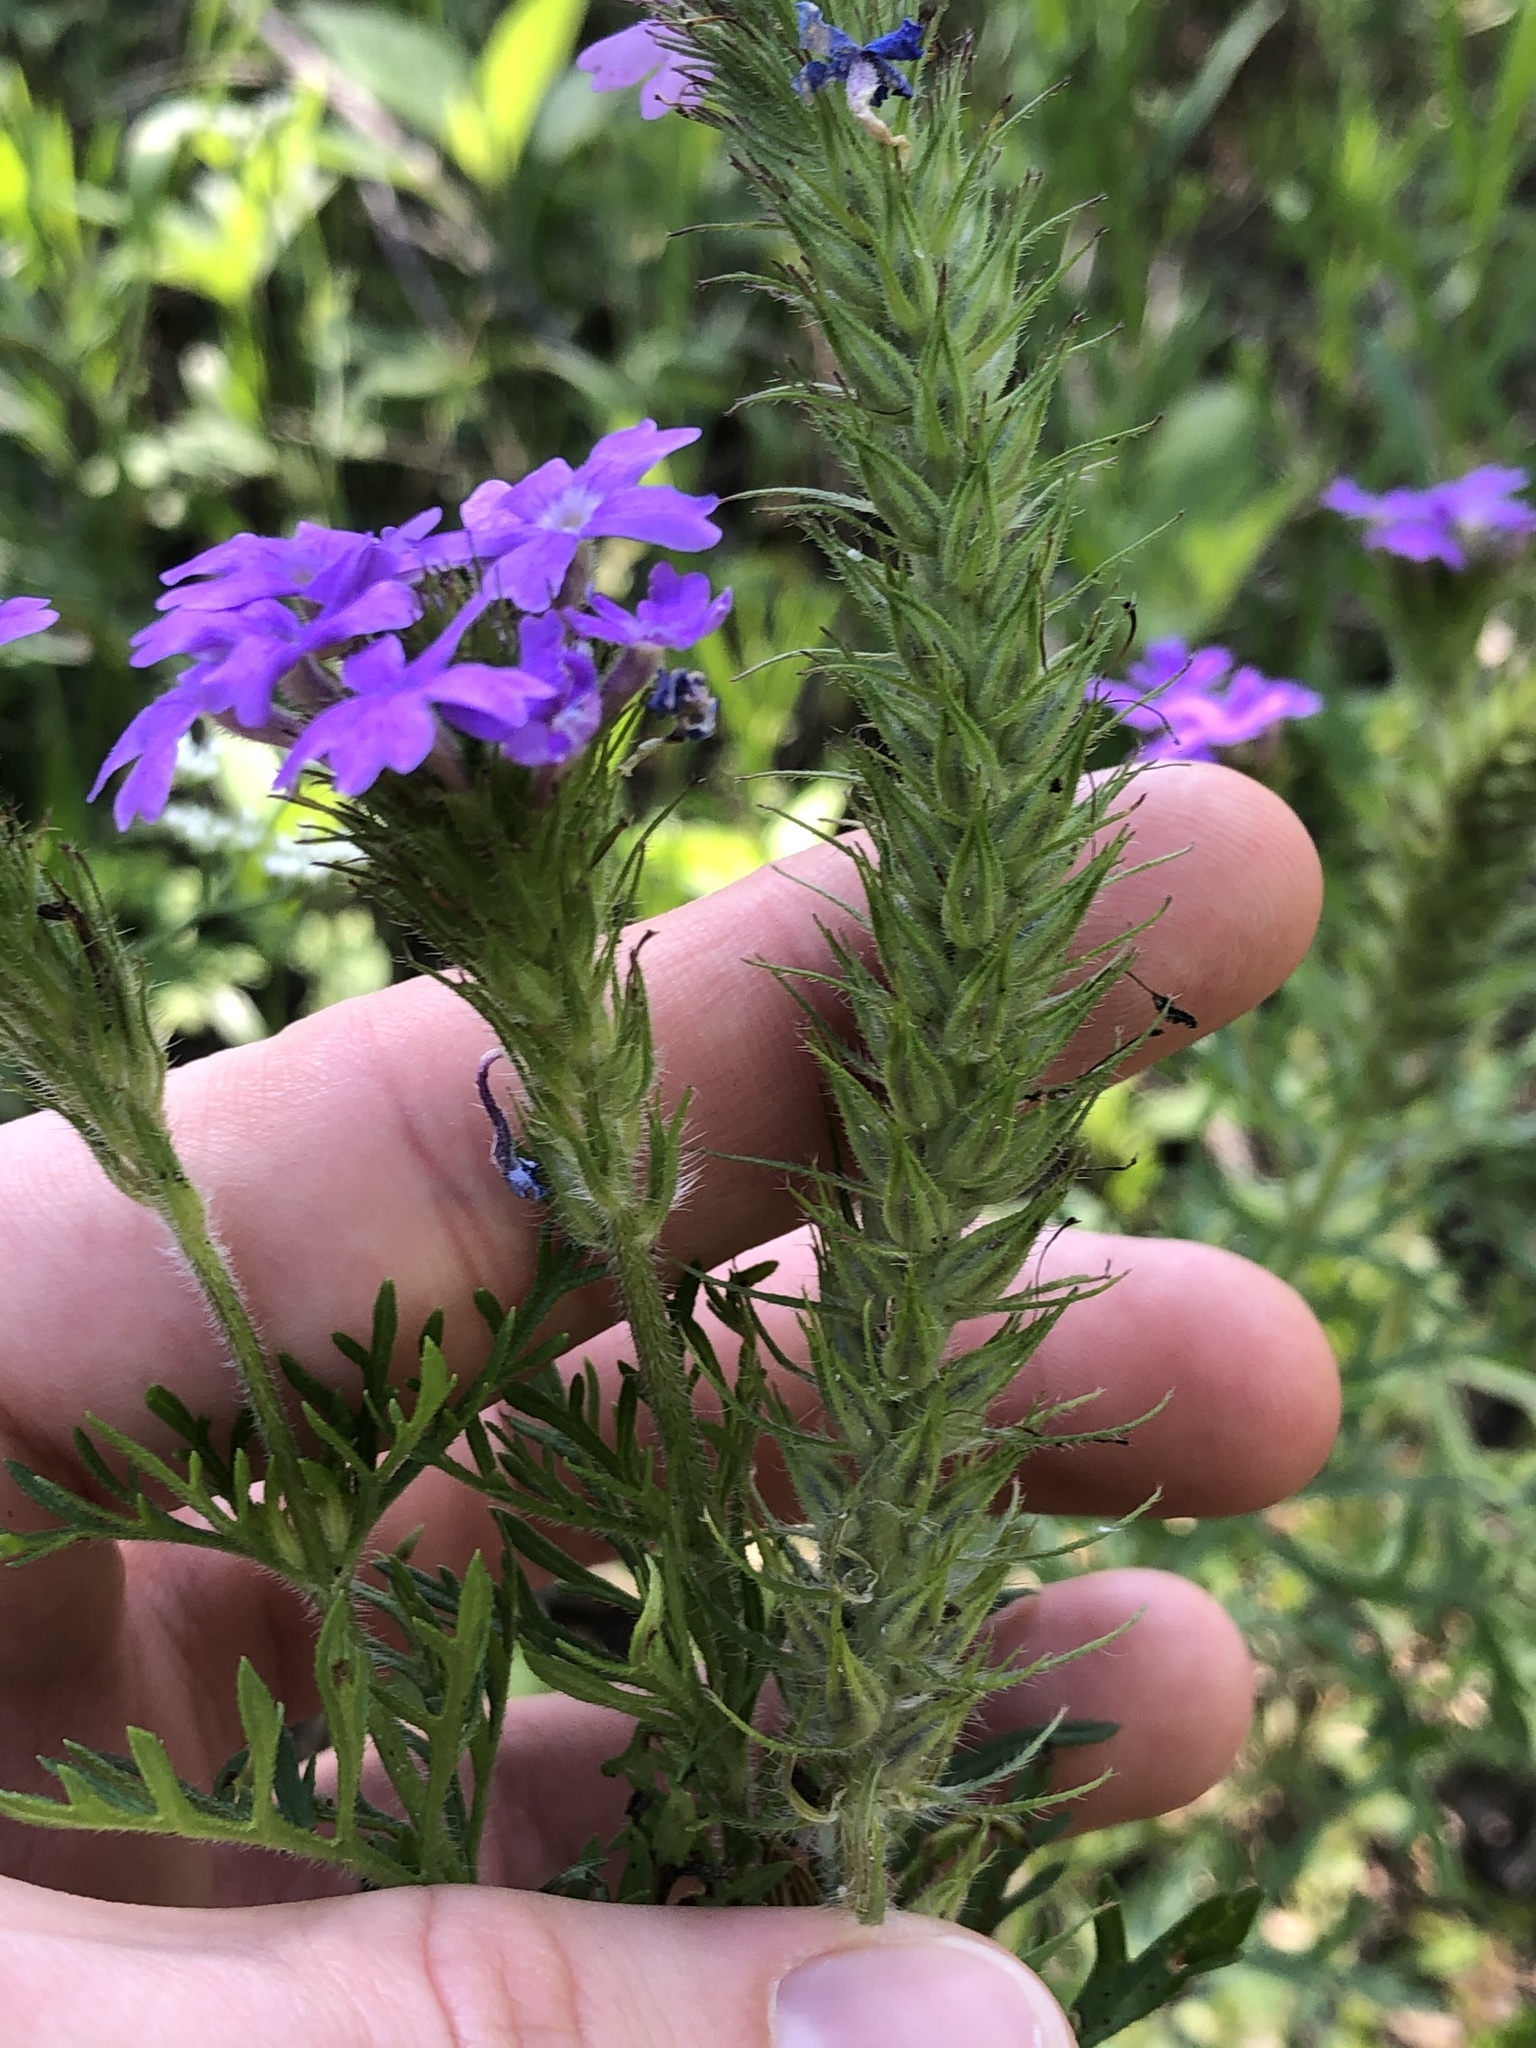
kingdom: Plantae
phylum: Tracheophyta
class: Magnoliopsida
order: Lamiales
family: Verbenaceae
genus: Verbena
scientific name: Verbena bipinnatifida
